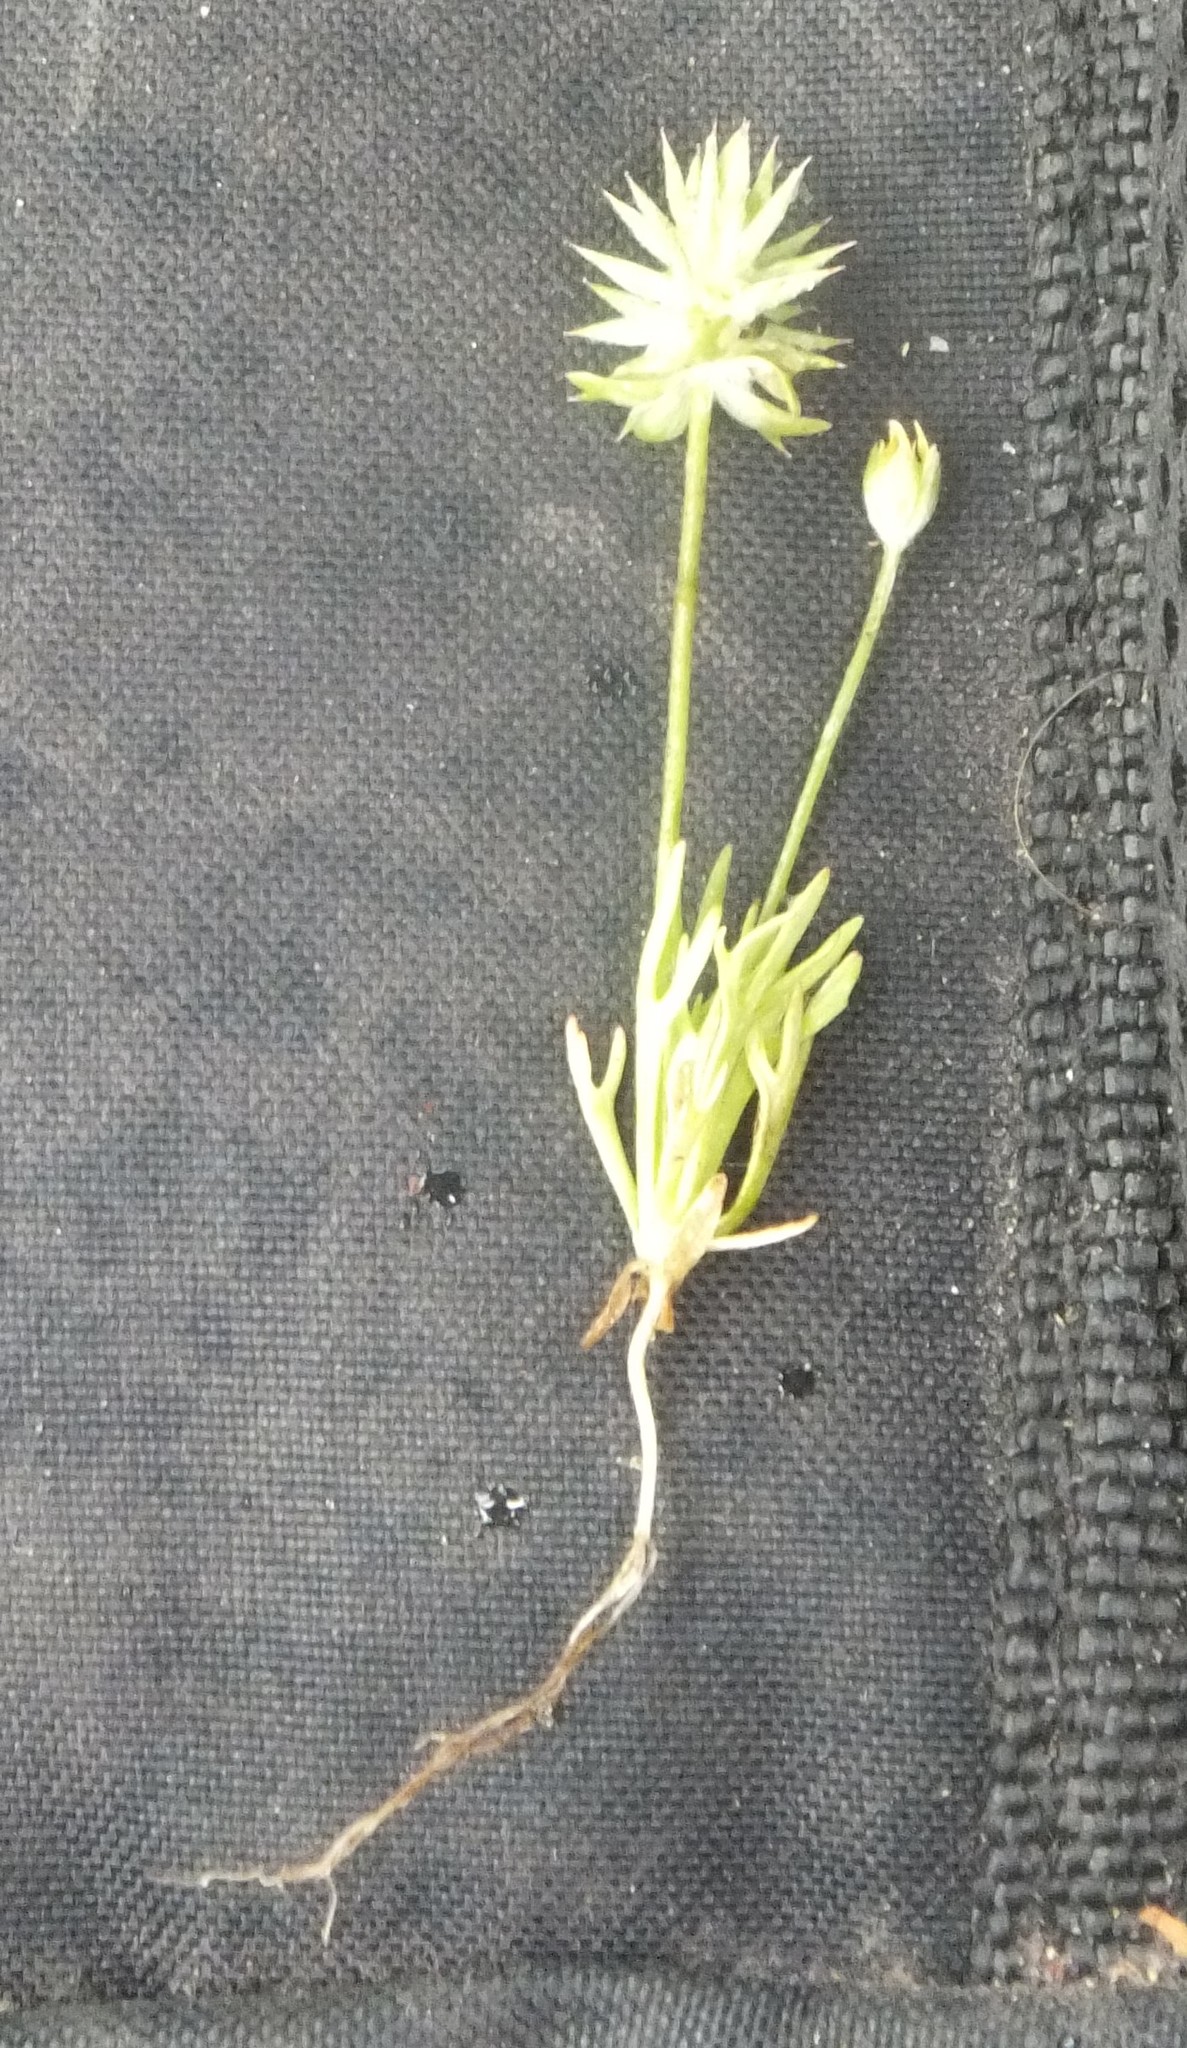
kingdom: Plantae
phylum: Tracheophyta
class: Magnoliopsida
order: Ranunculales
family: Ranunculaceae
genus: Ceratocephala
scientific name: Ceratocephala orthoceras
